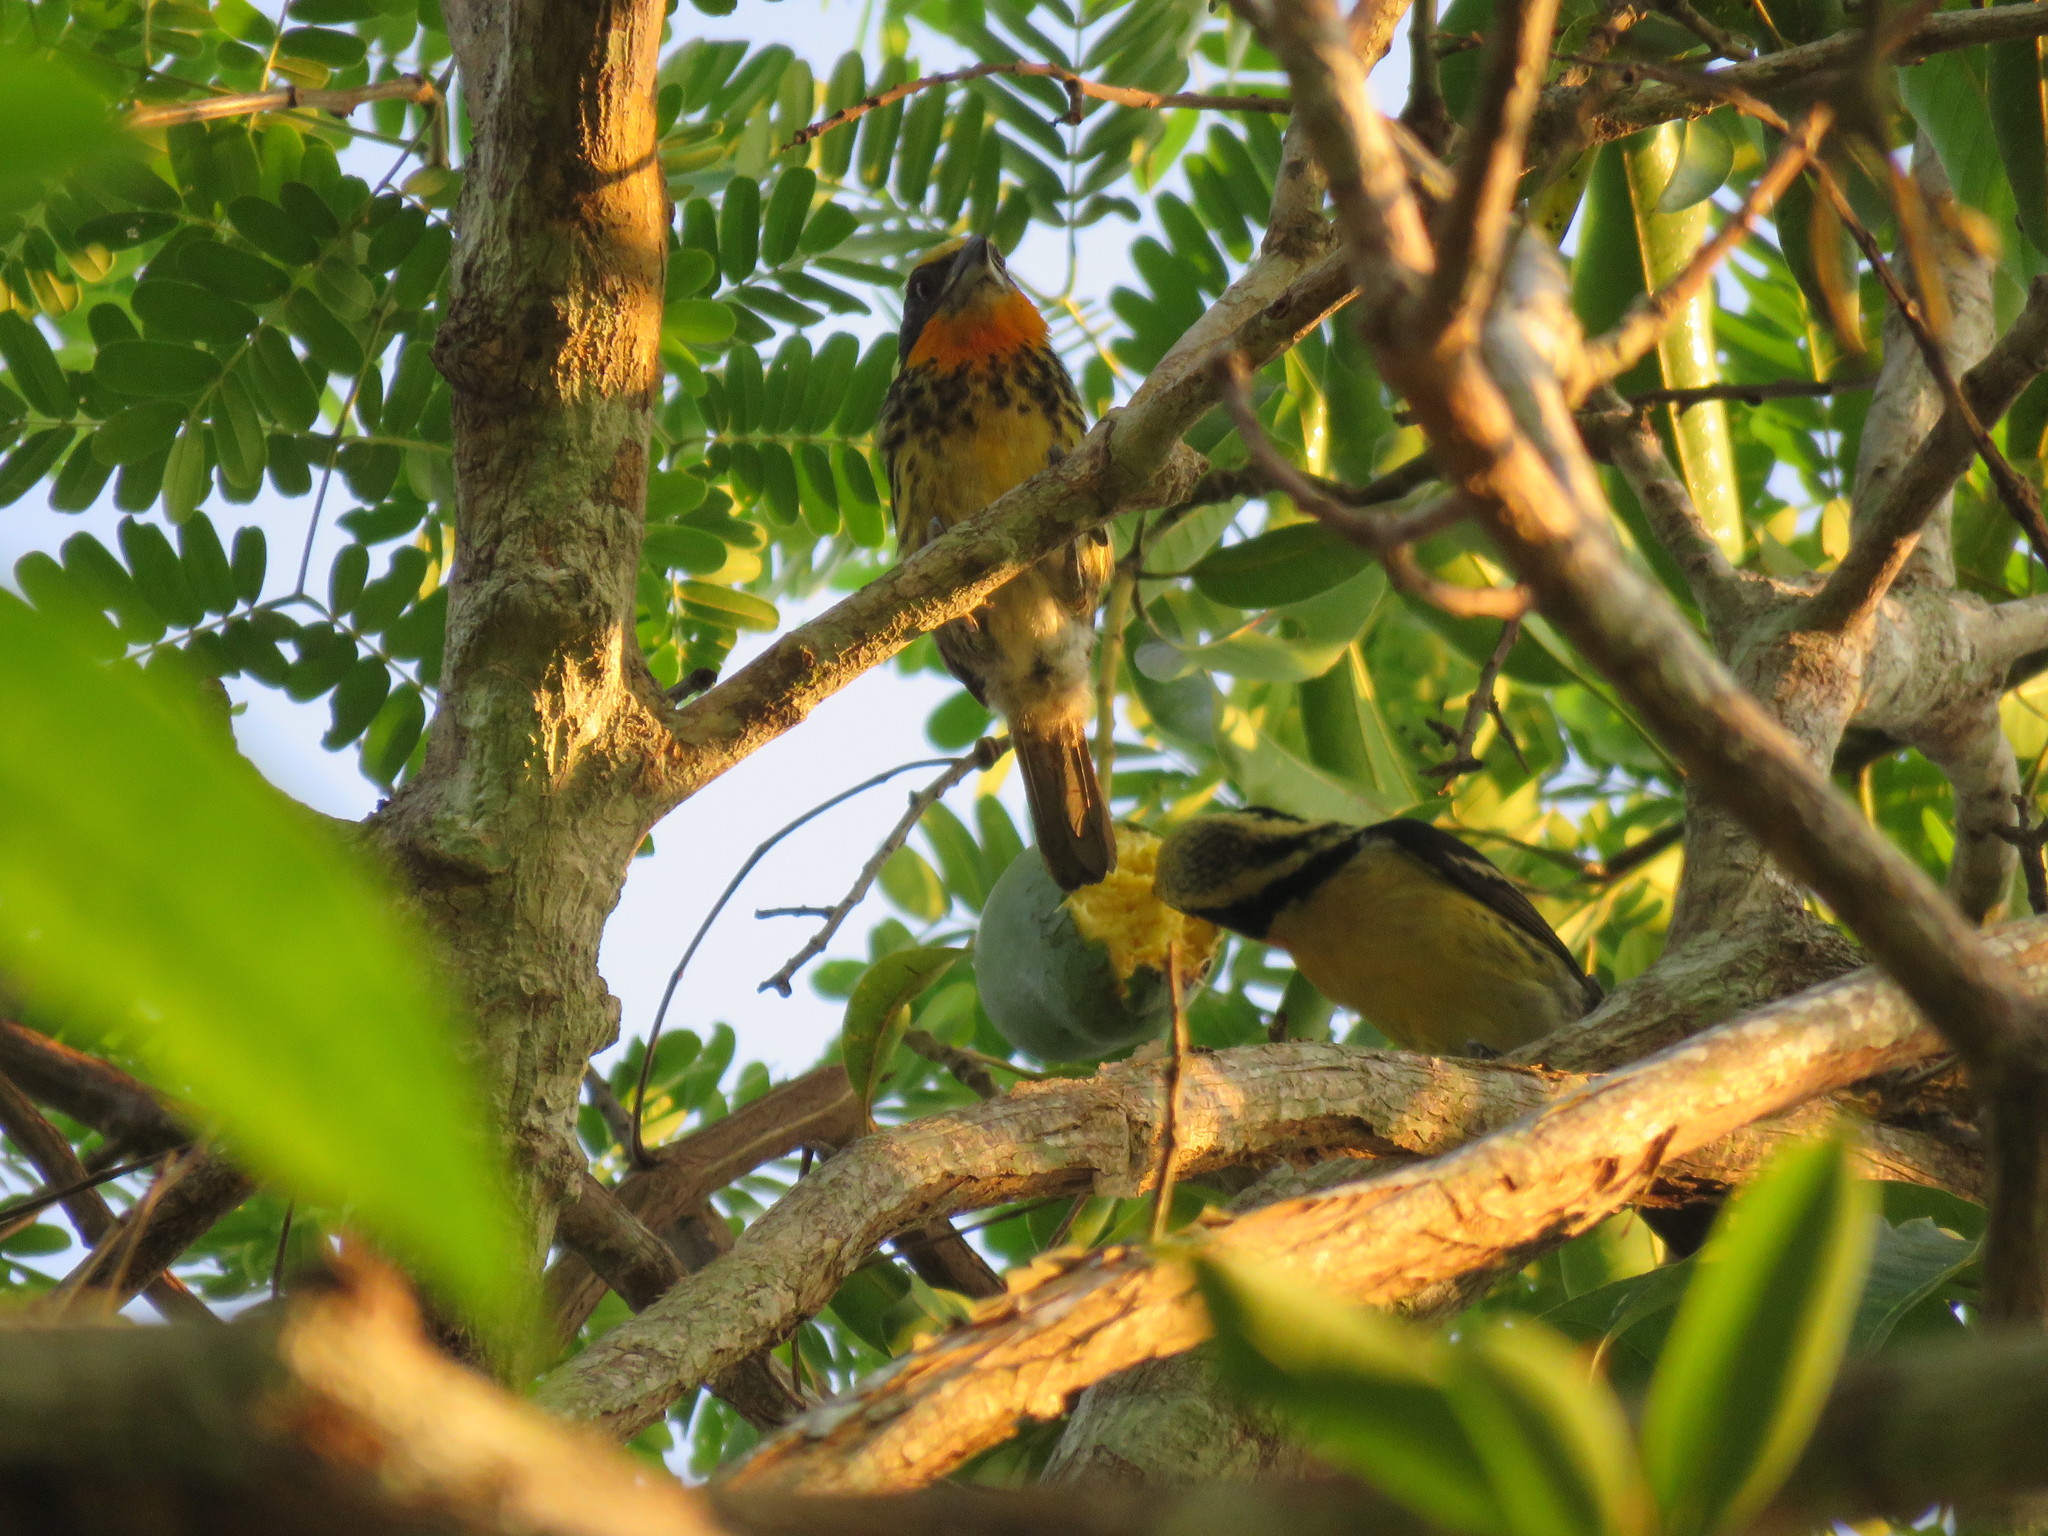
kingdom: Animalia
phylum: Chordata
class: Aves
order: Piciformes
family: Capitonidae
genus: Capito
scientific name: Capito auratus
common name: Gilded barbet
